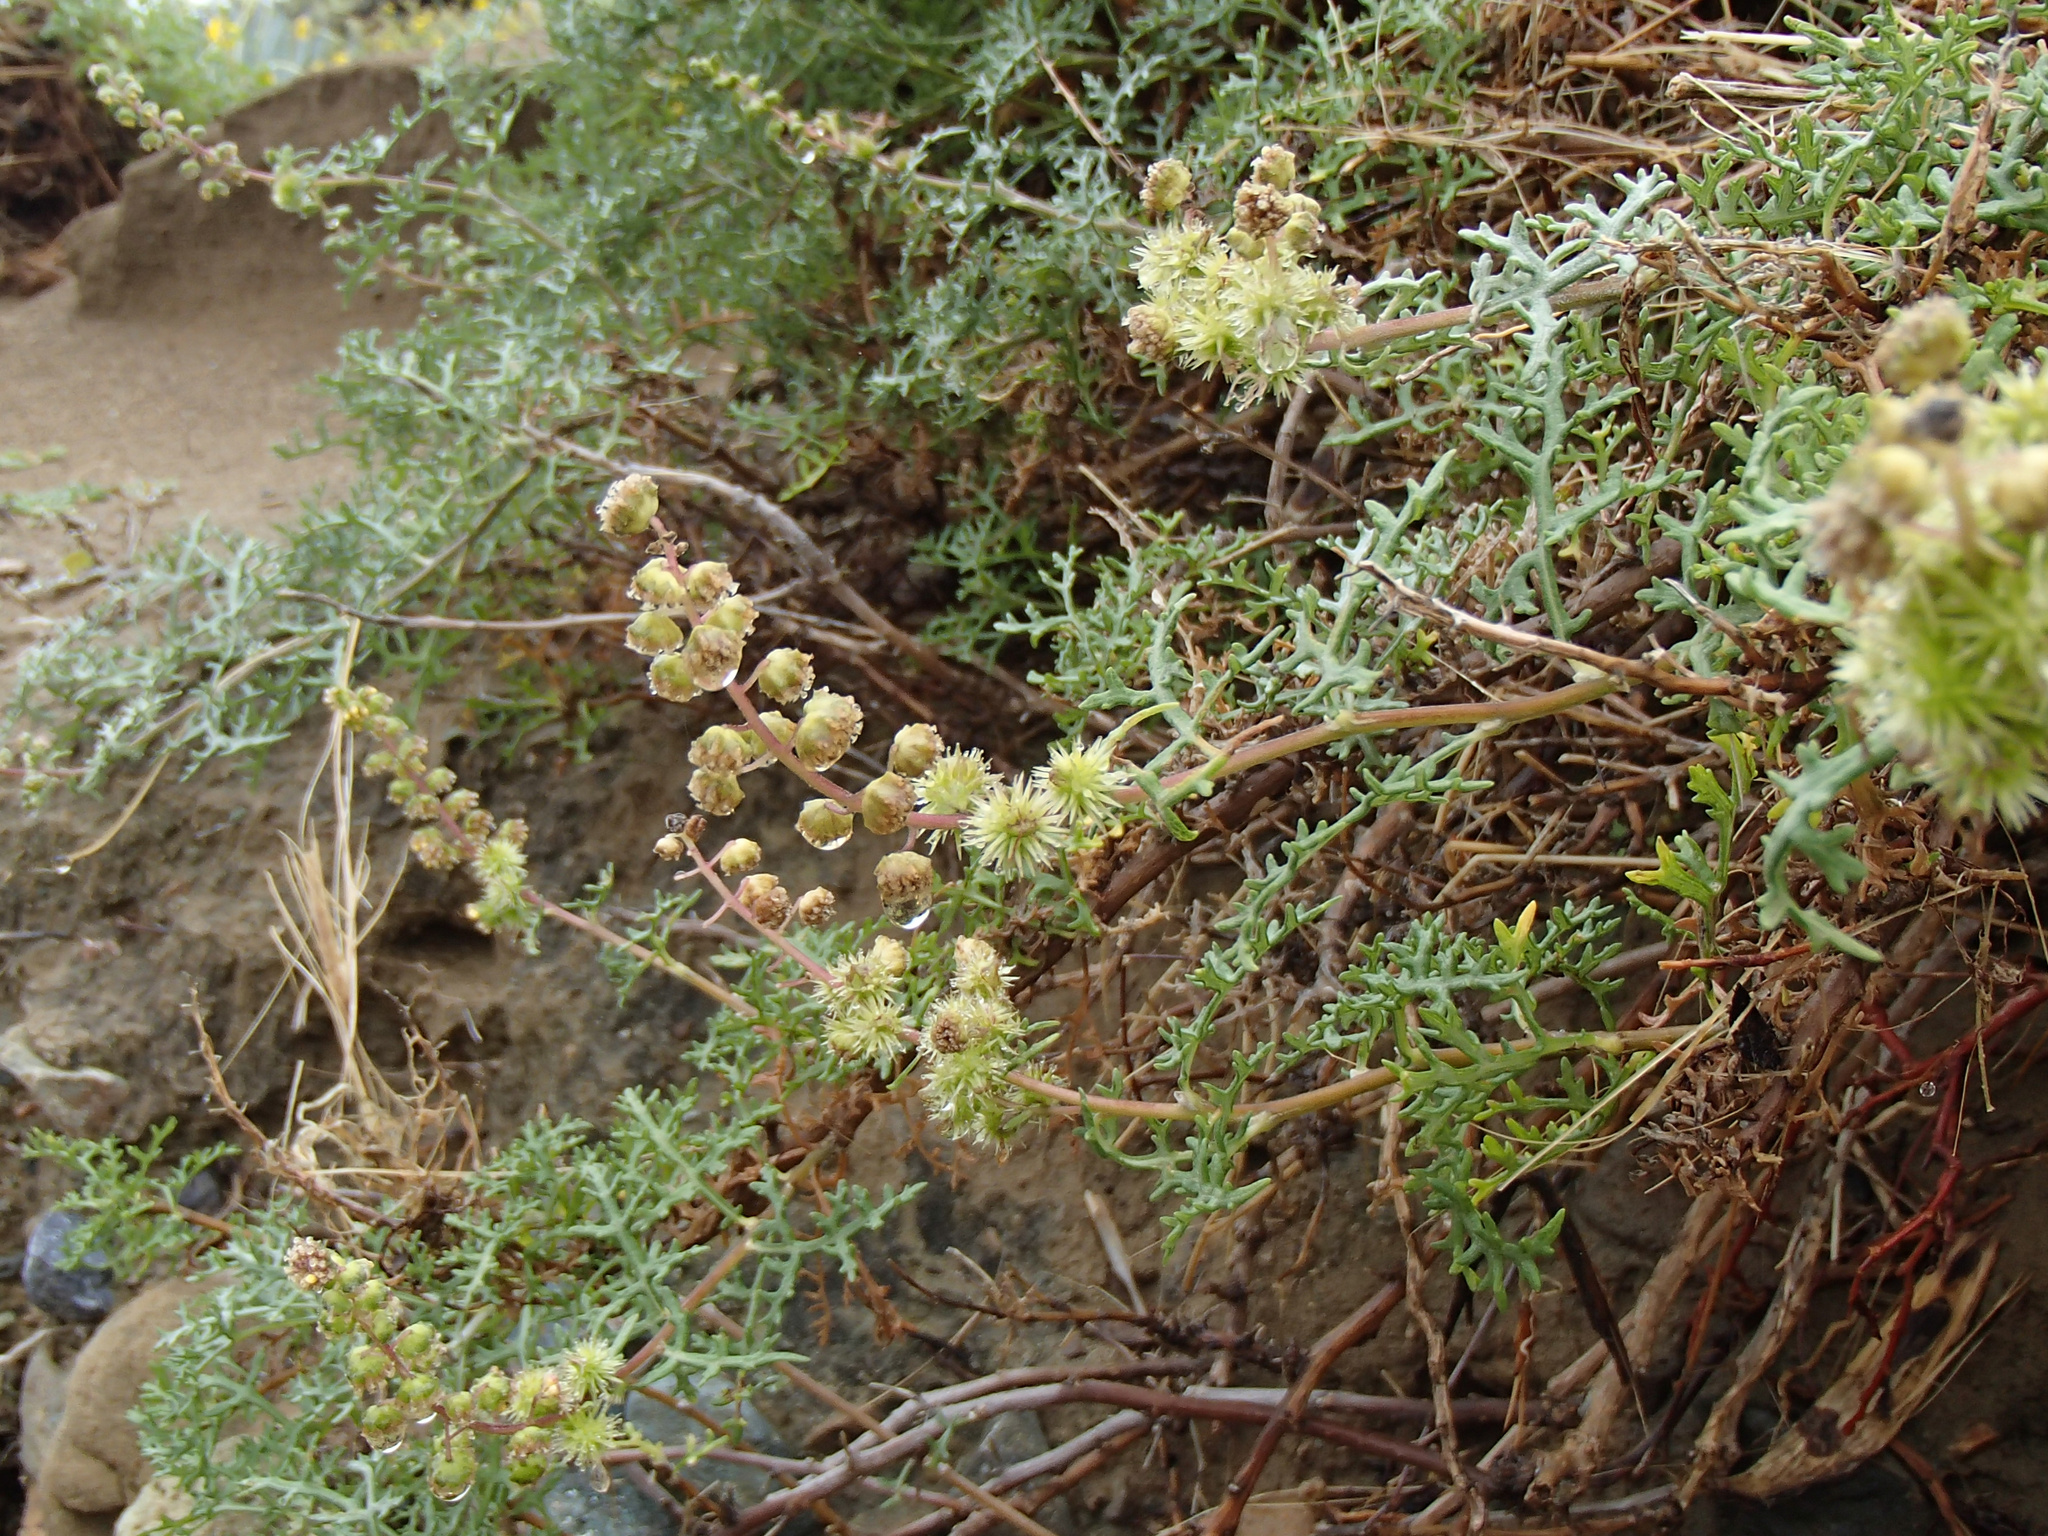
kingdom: Plantae
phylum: Tracheophyta
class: Magnoliopsida
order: Asterales
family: Asteraceae
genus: Ambrosia
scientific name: Ambrosia magdalenae
